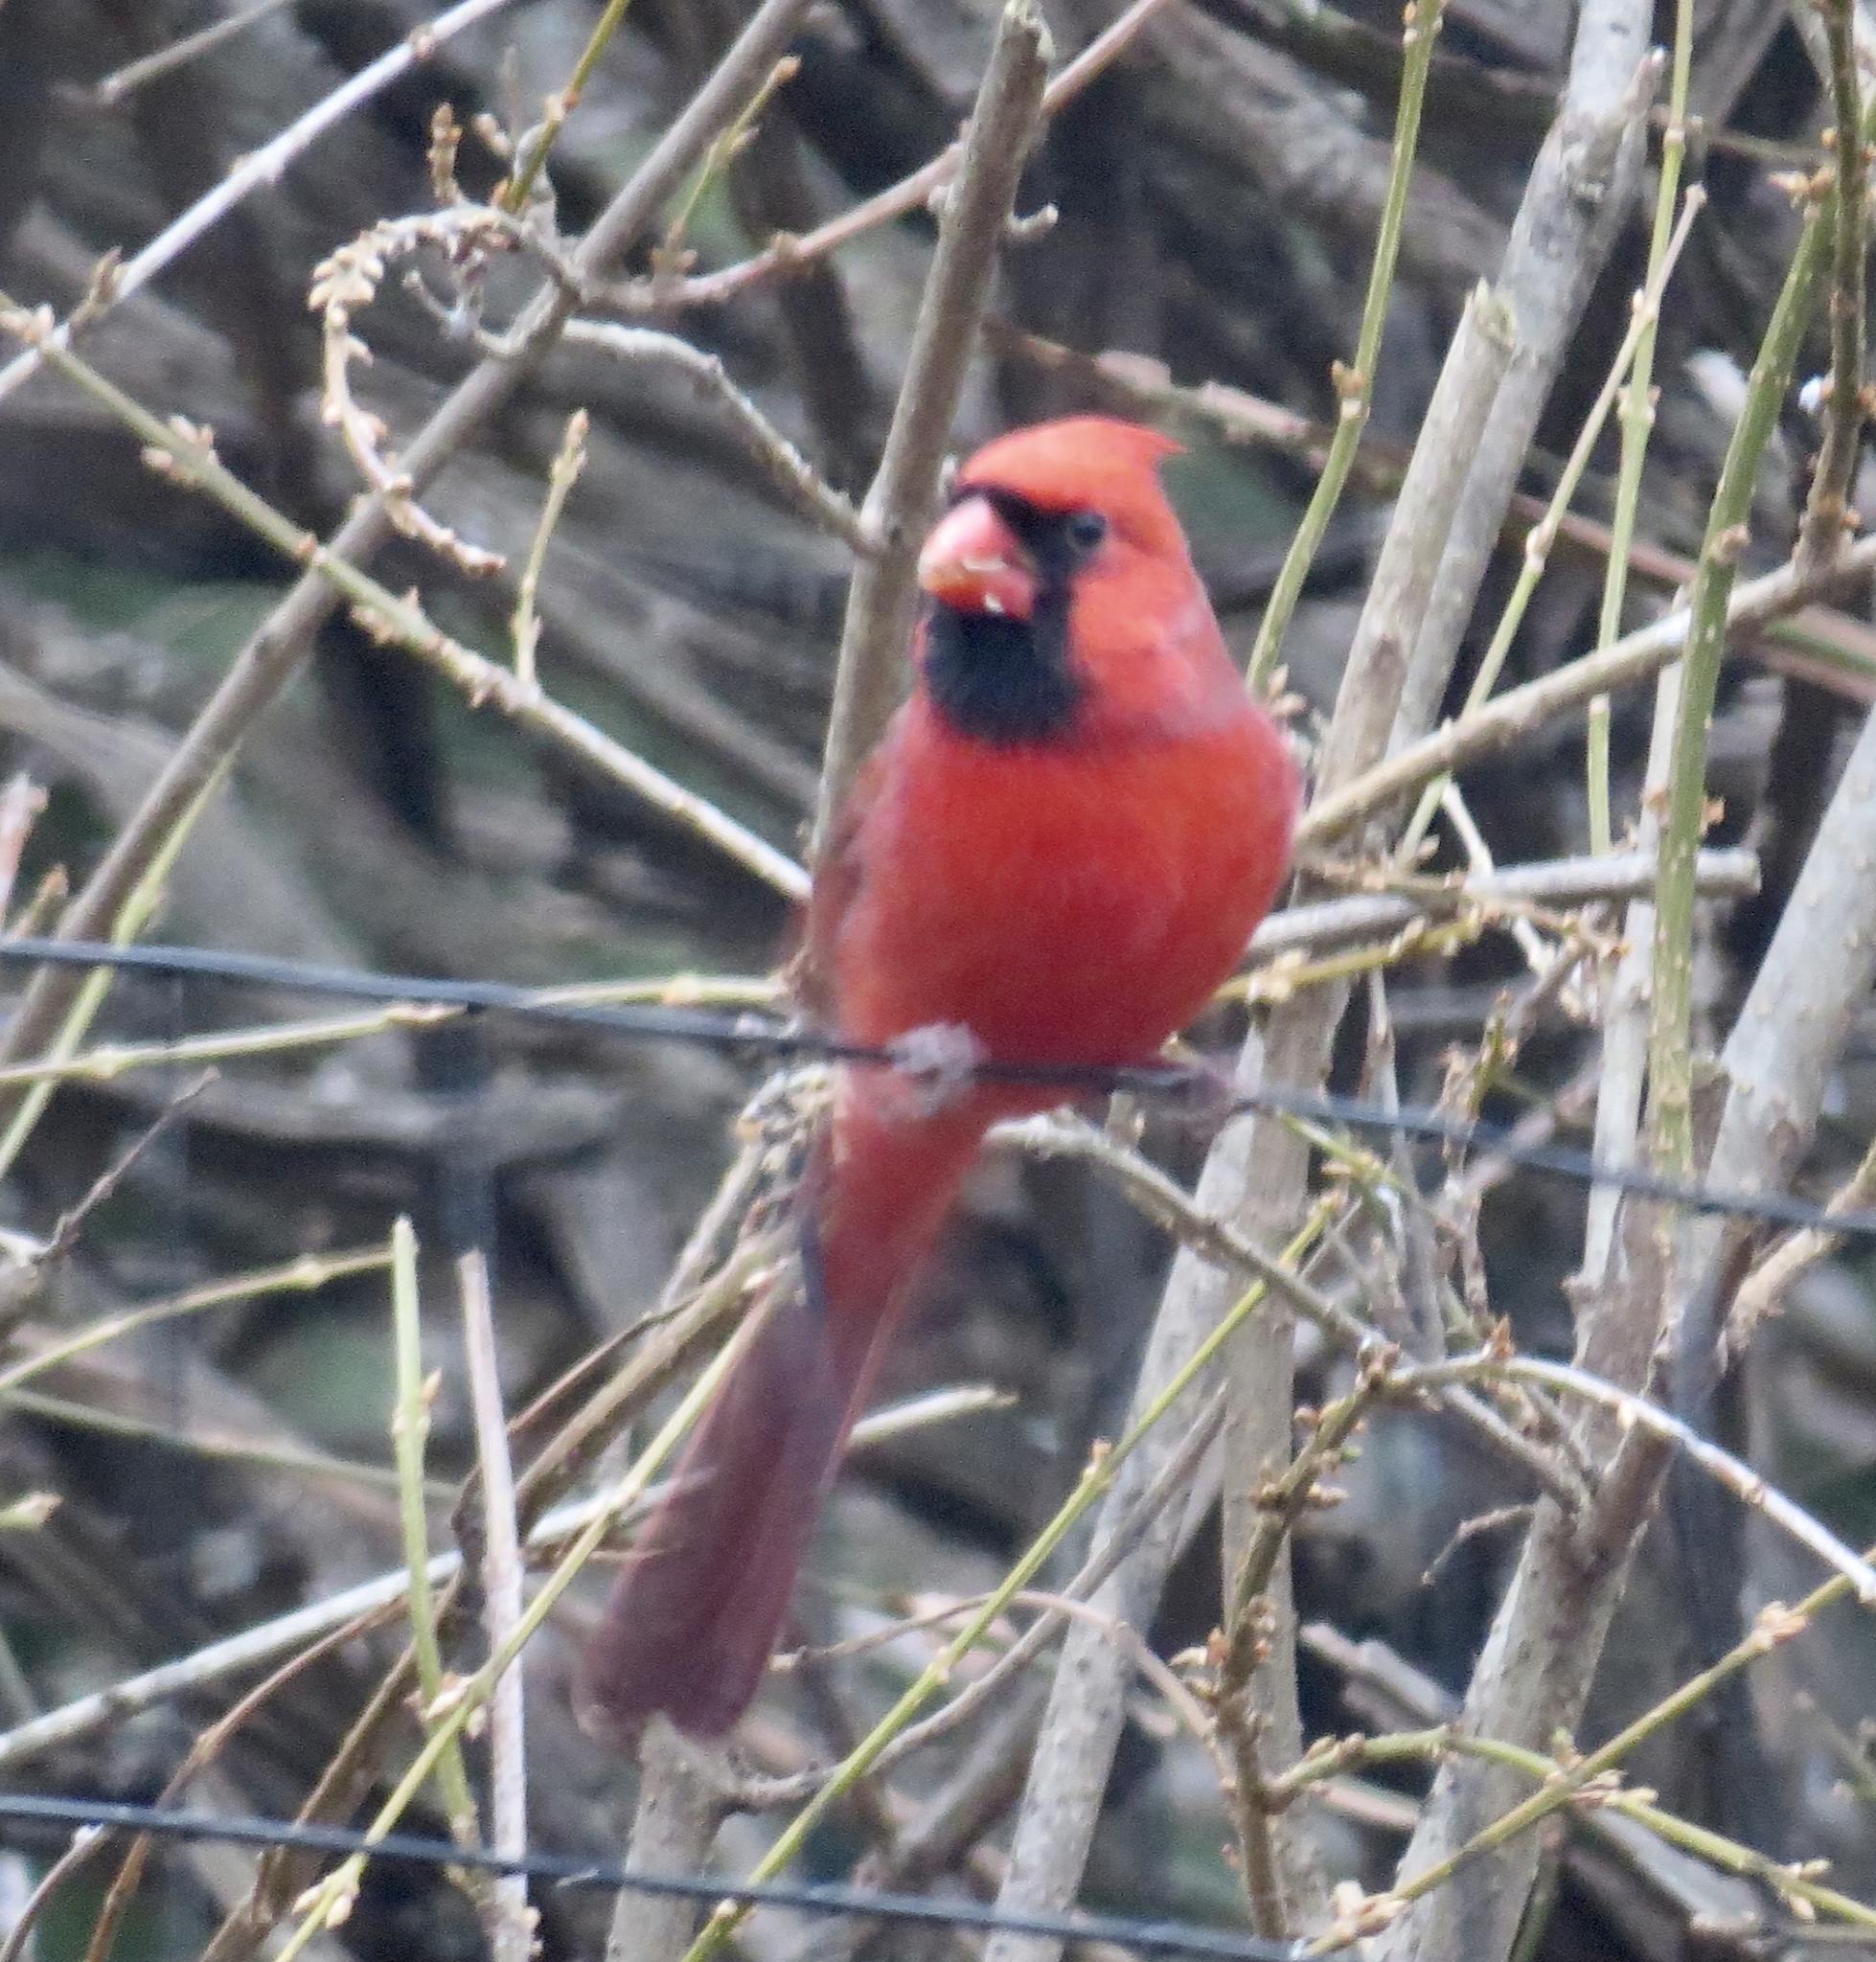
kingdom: Animalia
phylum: Chordata
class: Aves
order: Passeriformes
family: Cardinalidae
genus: Cardinalis
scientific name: Cardinalis cardinalis
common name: Northern cardinal
